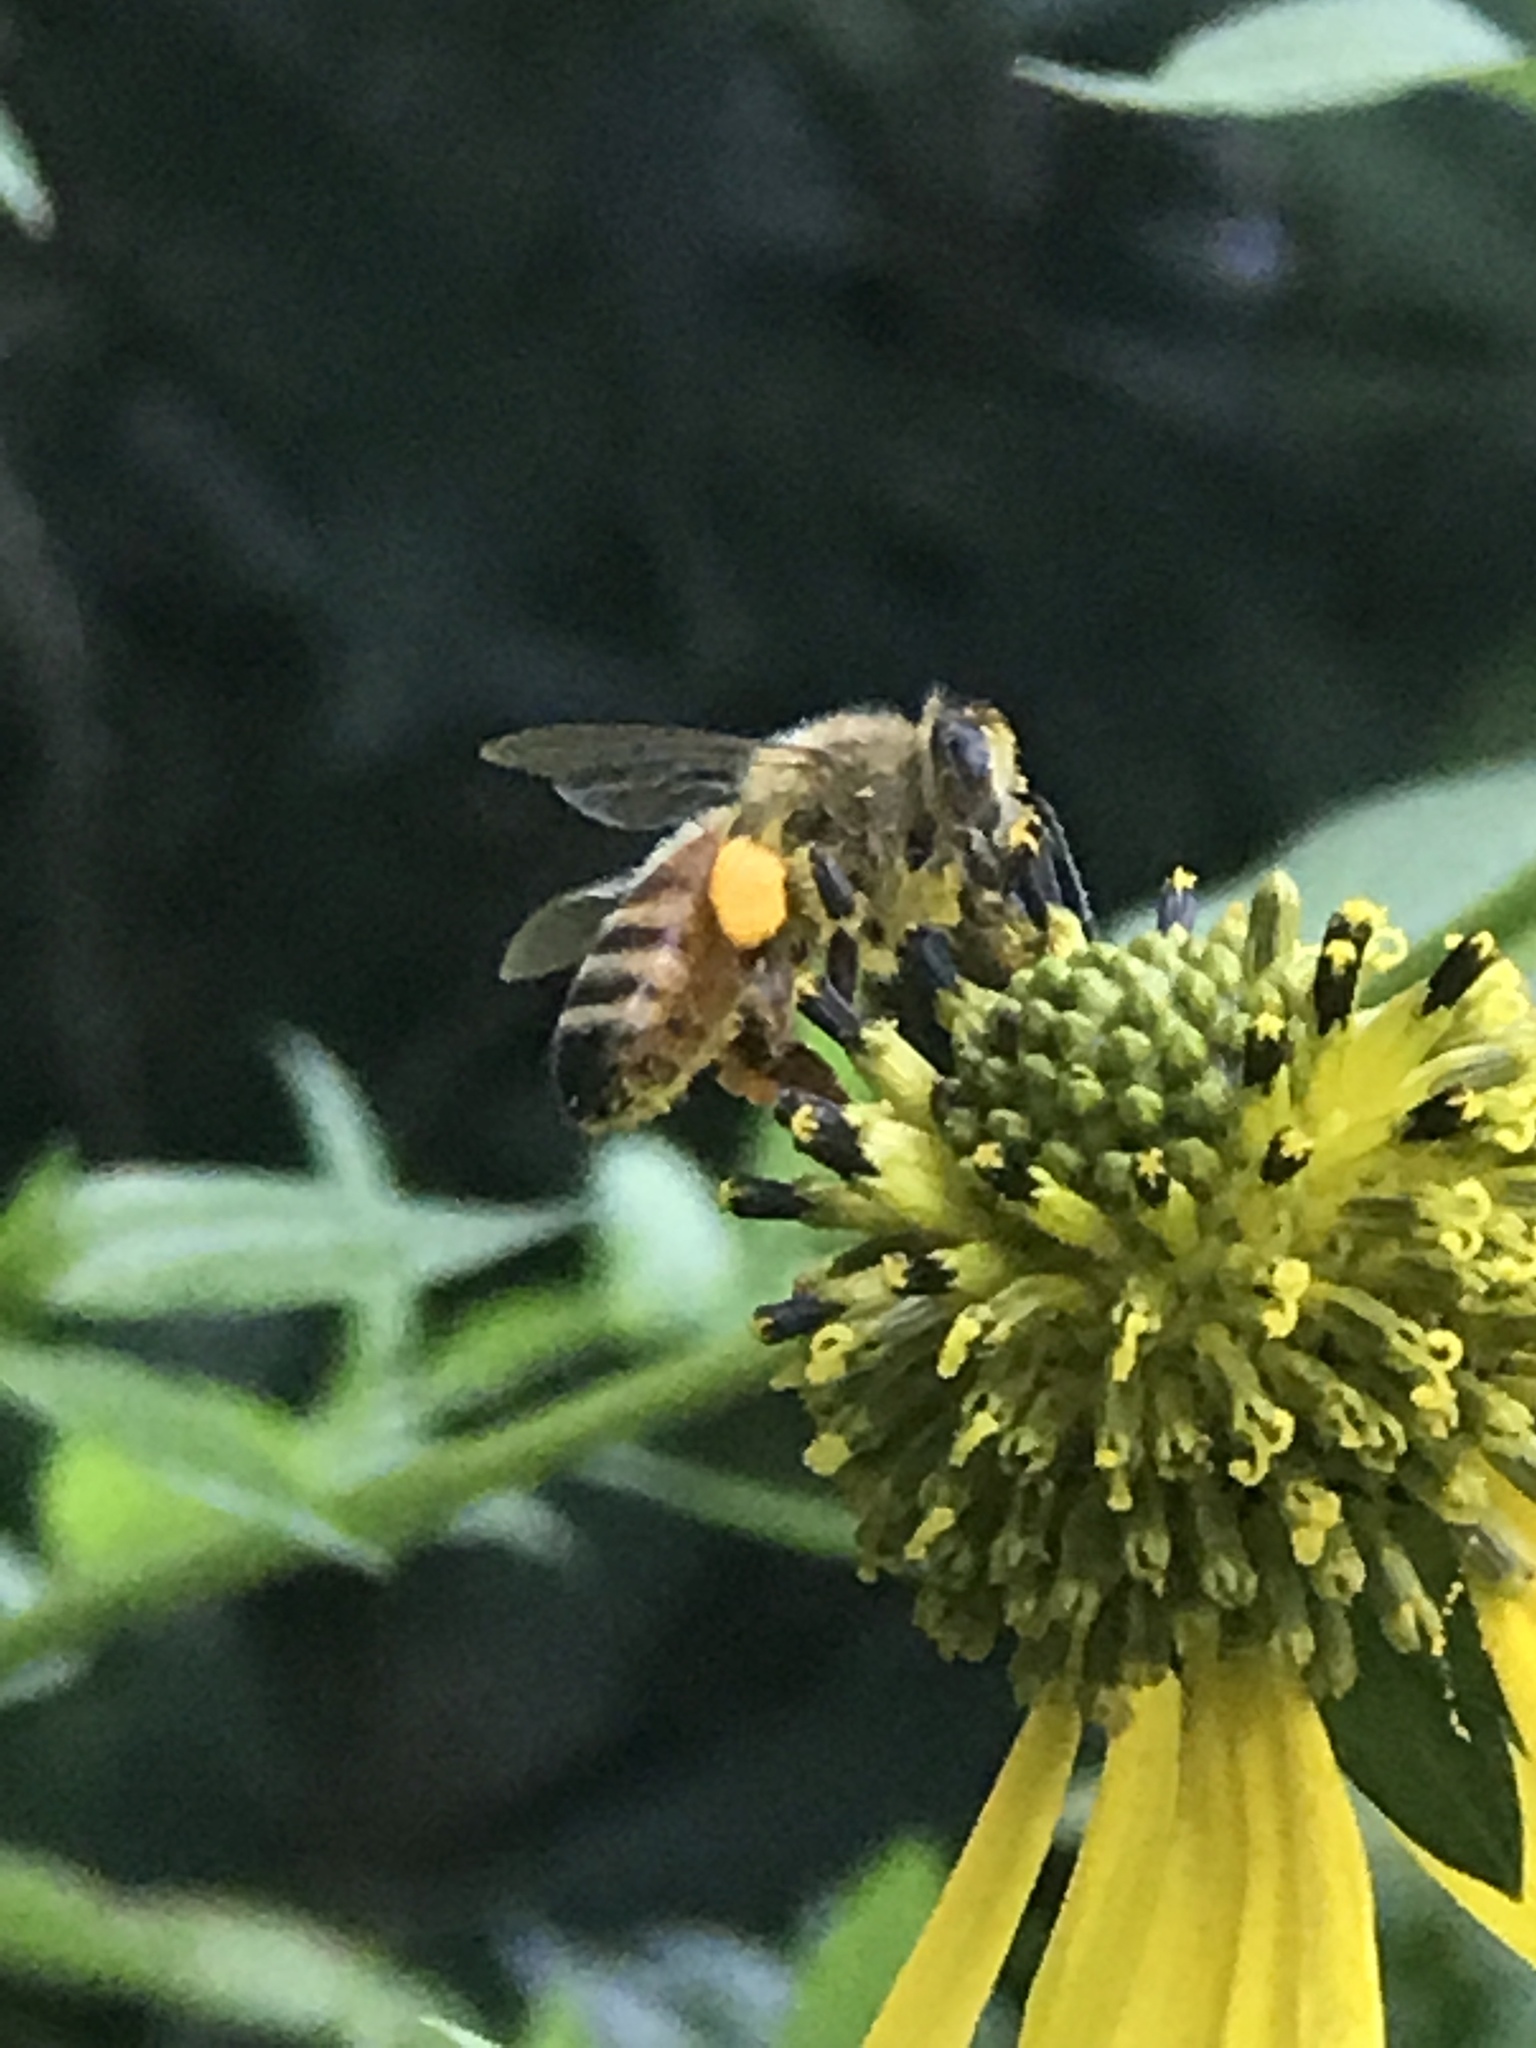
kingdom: Animalia
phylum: Arthropoda
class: Insecta
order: Hymenoptera
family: Apidae
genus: Apis
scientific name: Apis mellifera
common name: Honey bee
